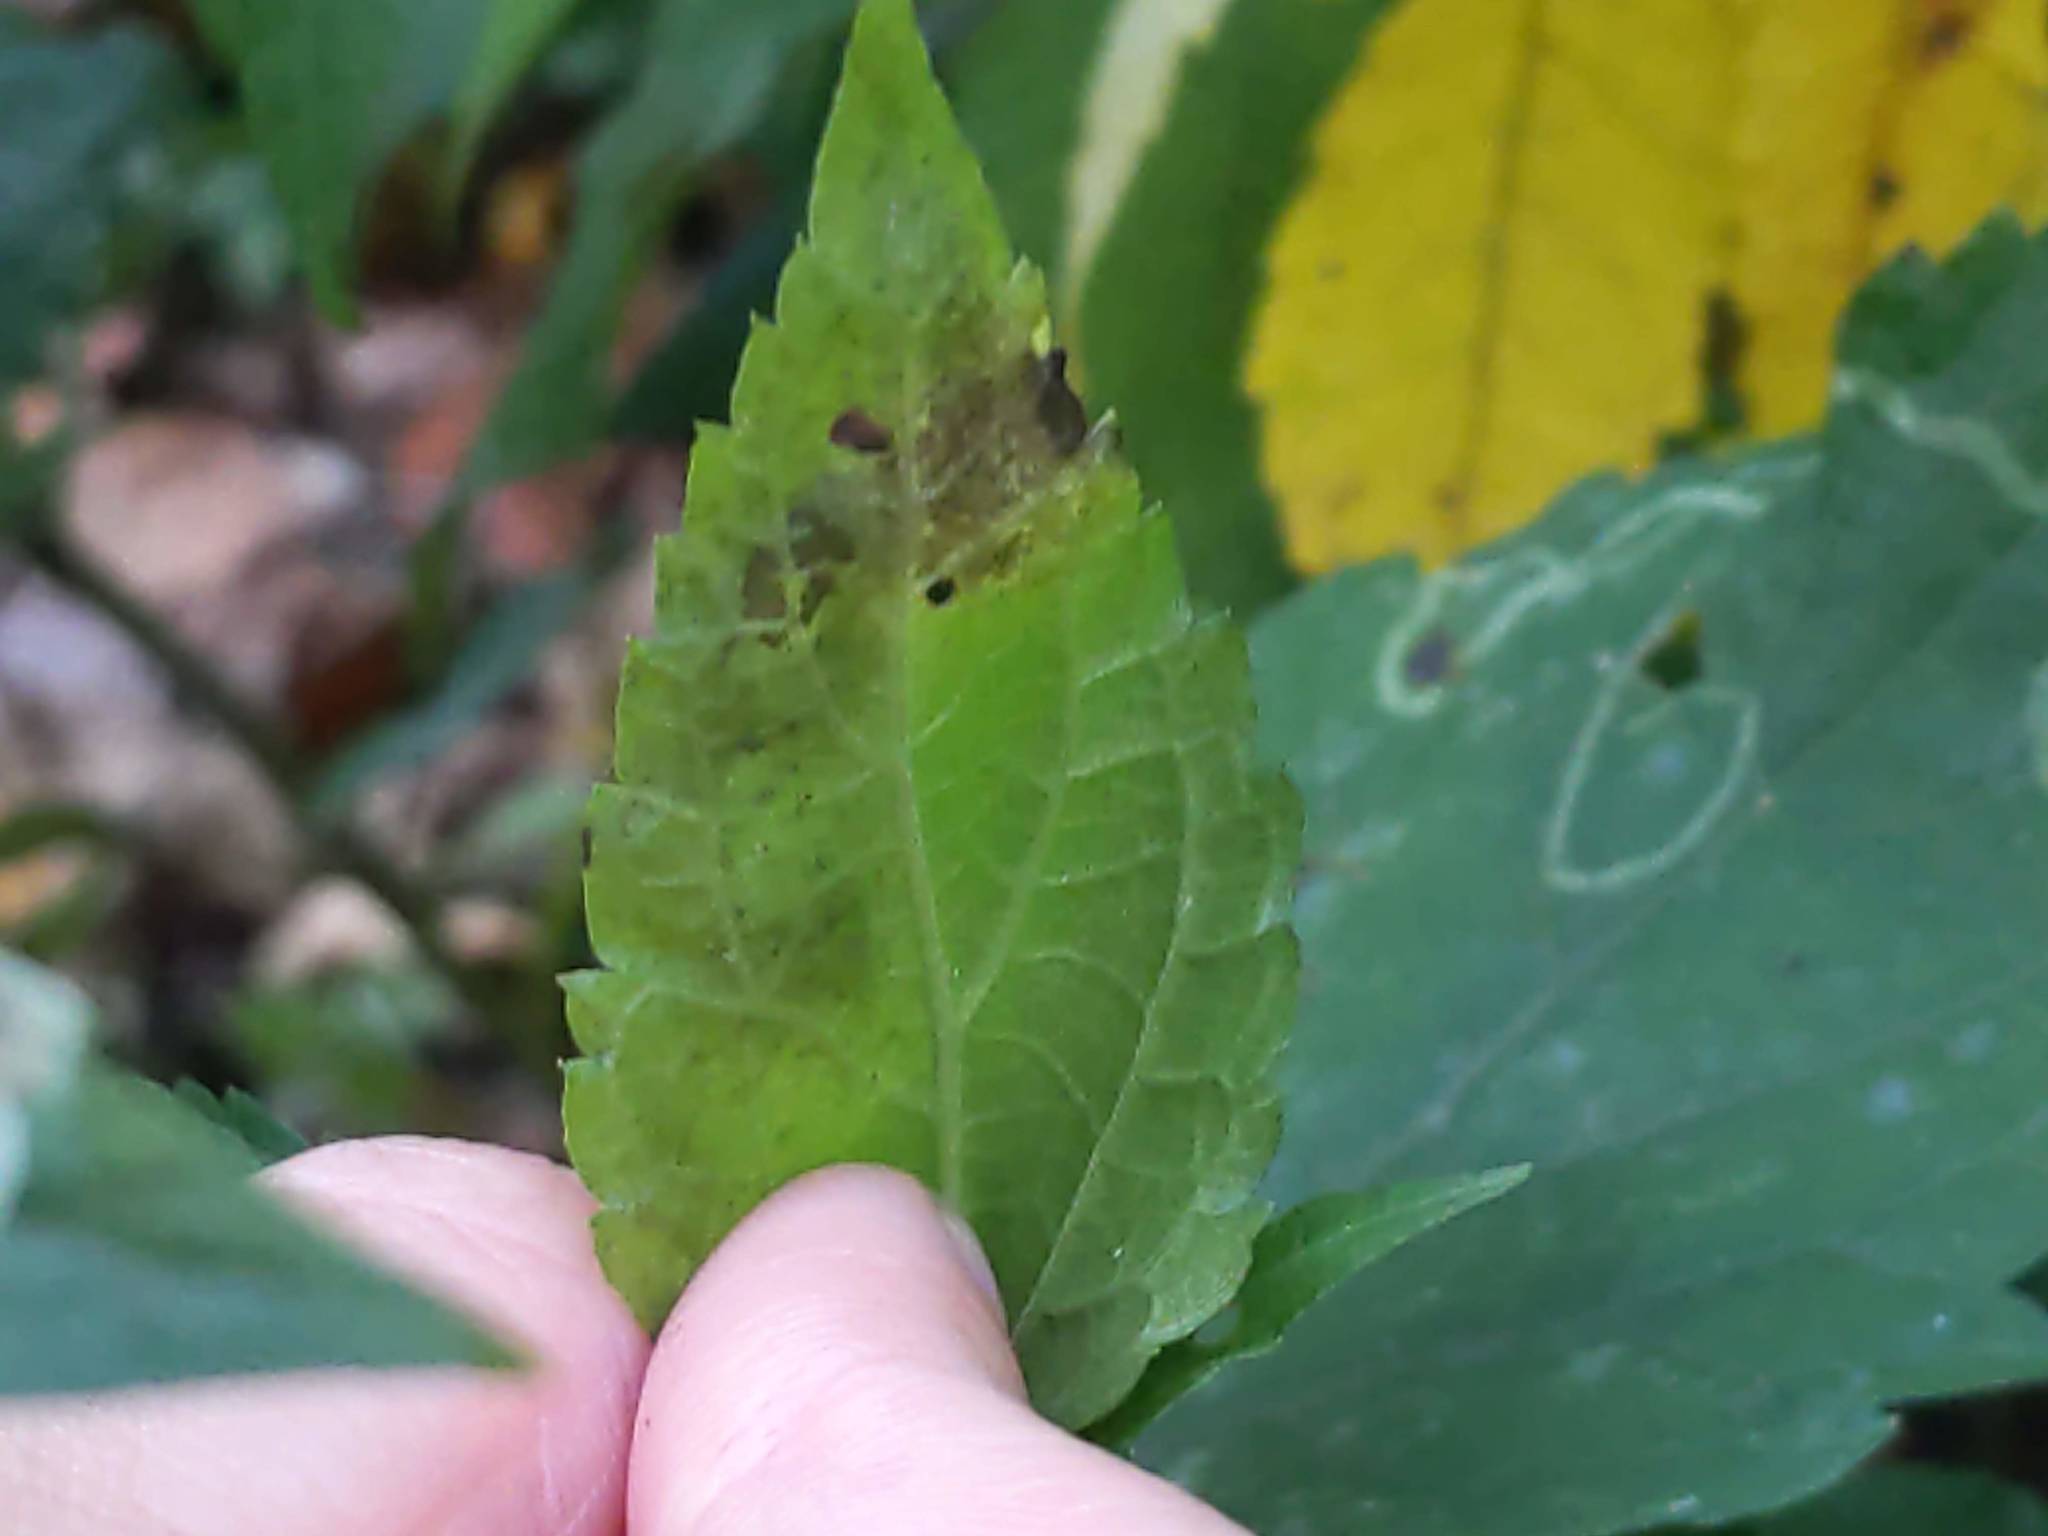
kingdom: Animalia
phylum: Arthropoda
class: Insecta
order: Diptera
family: Agromyzidae
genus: Calycomyza
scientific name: Calycomyza
